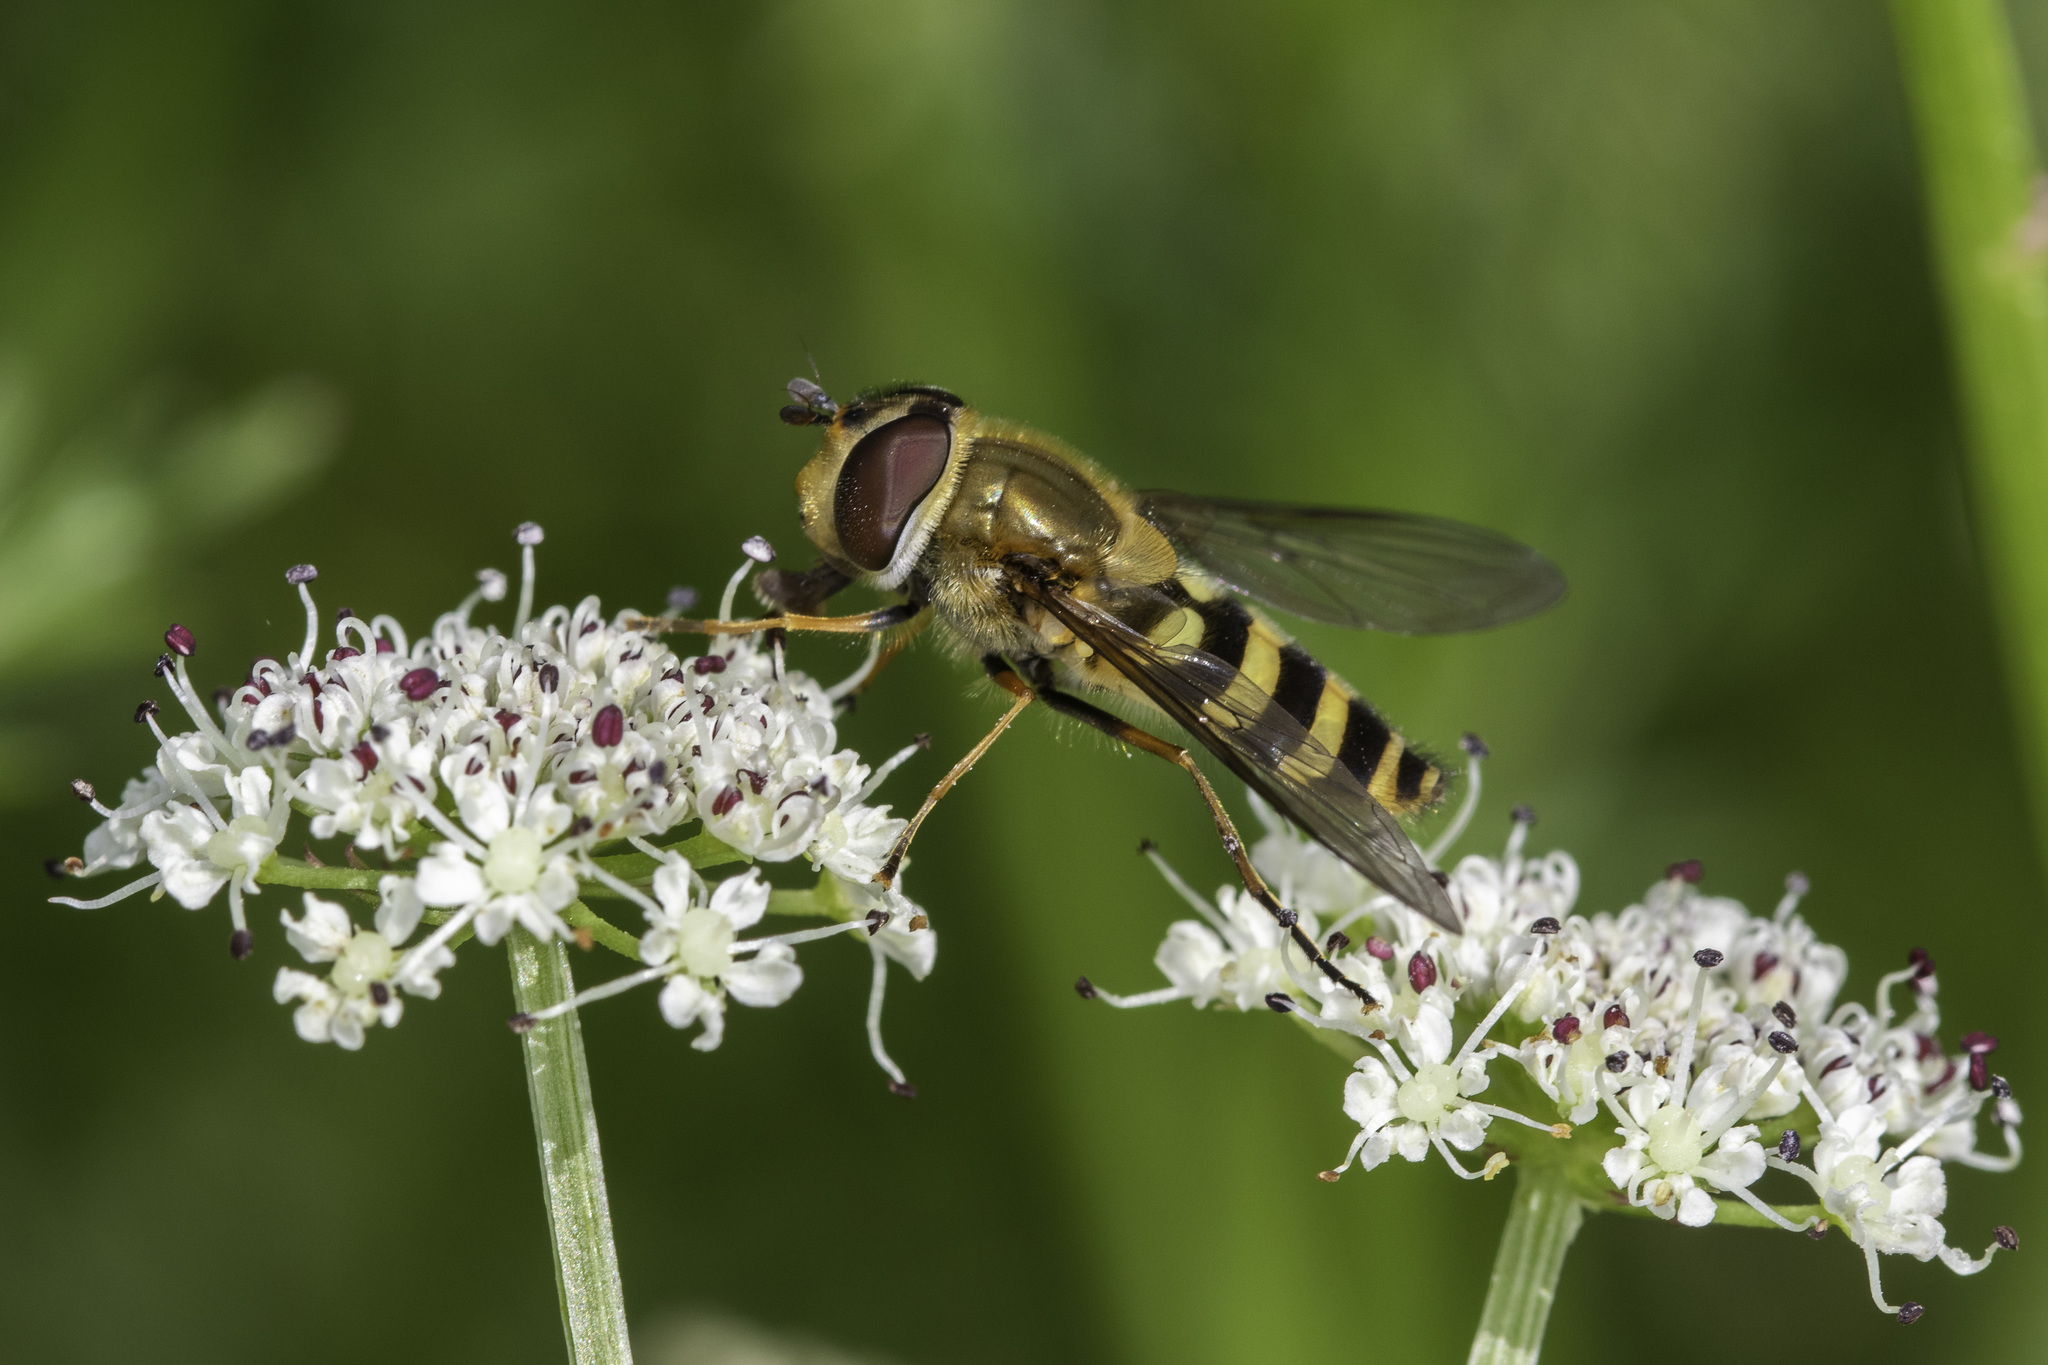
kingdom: Animalia
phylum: Arthropoda
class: Insecta
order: Diptera
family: Syrphidae
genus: Syrphus
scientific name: Syrphus torvus
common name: Hairy-eyed flower fly
